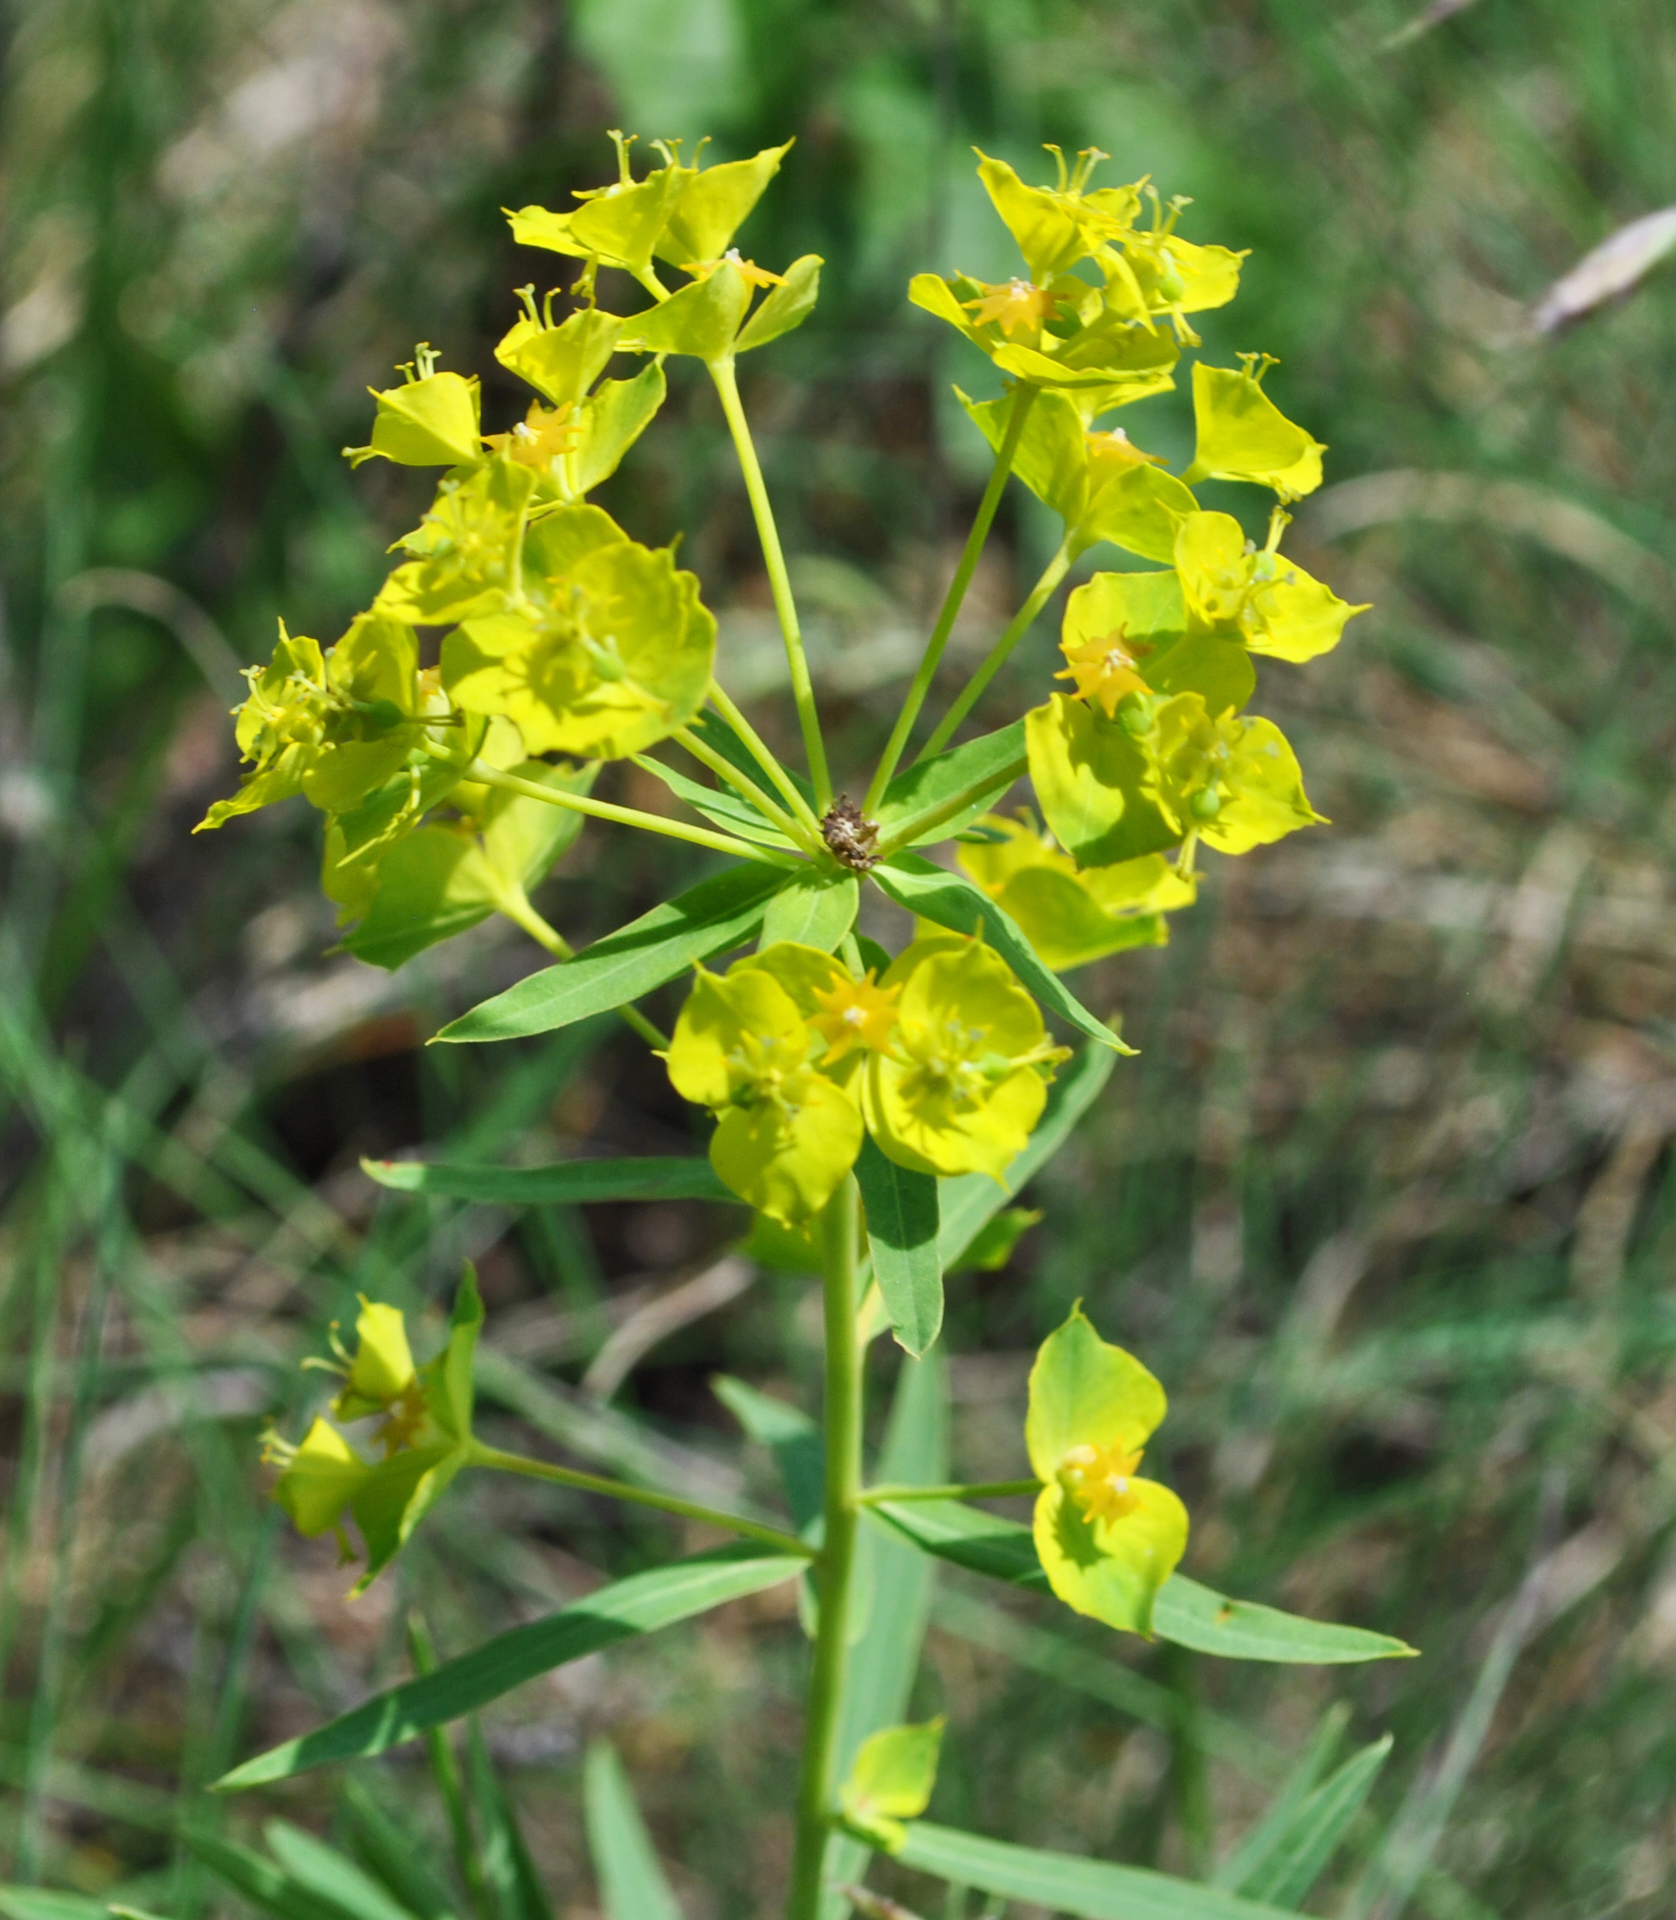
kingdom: Plantae
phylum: Tracheophyta
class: Magnoliopsida
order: Malpighiales
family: Euphorbiaceae
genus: Euphorbia
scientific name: Euphorbia virgata
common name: Leafy spurge
